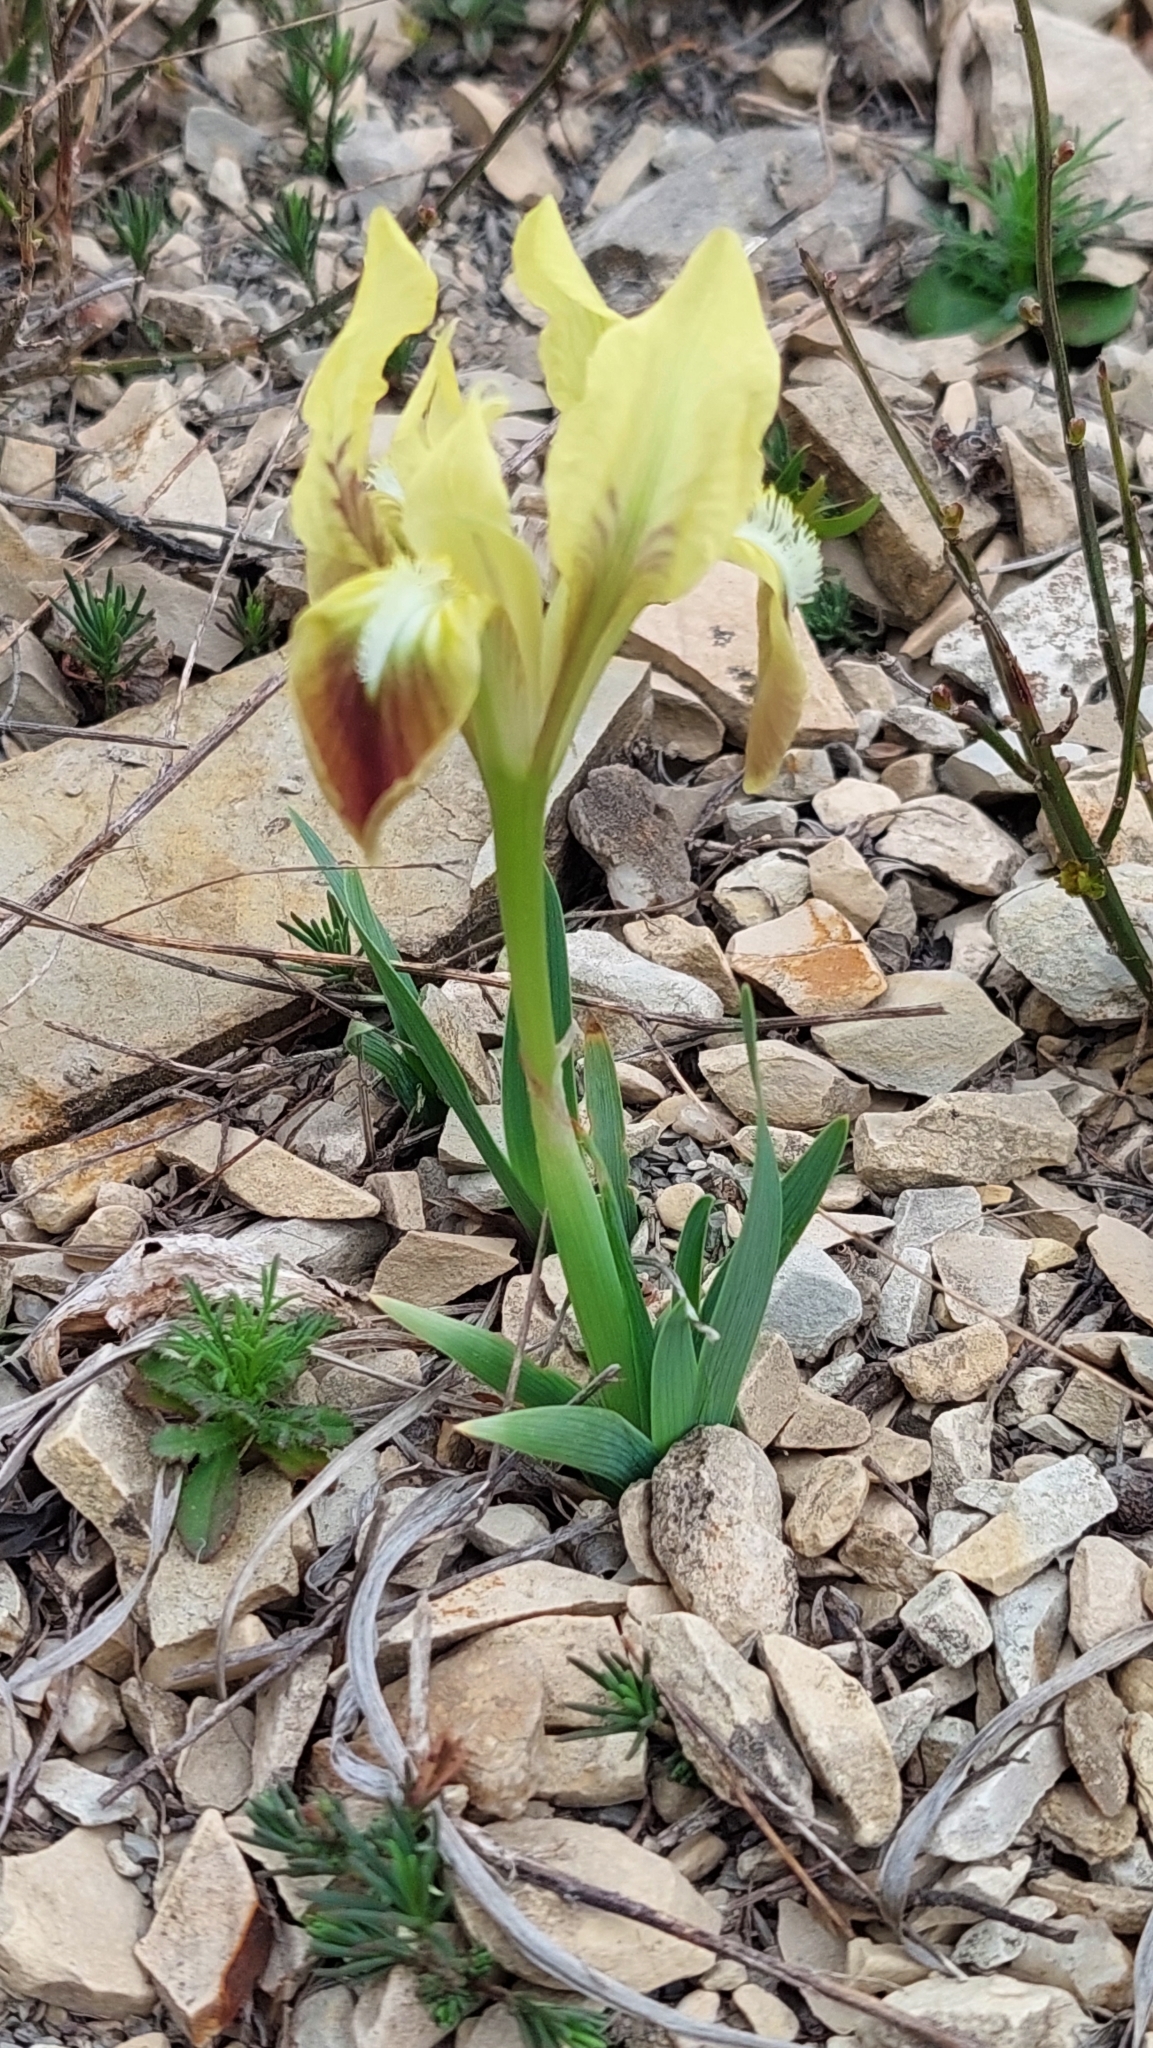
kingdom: Plantae
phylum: Tracheophyta
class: Liliopsida
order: Asparagales
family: Iridaceae
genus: Iris
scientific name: Iris pumila
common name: Dwarf iris
